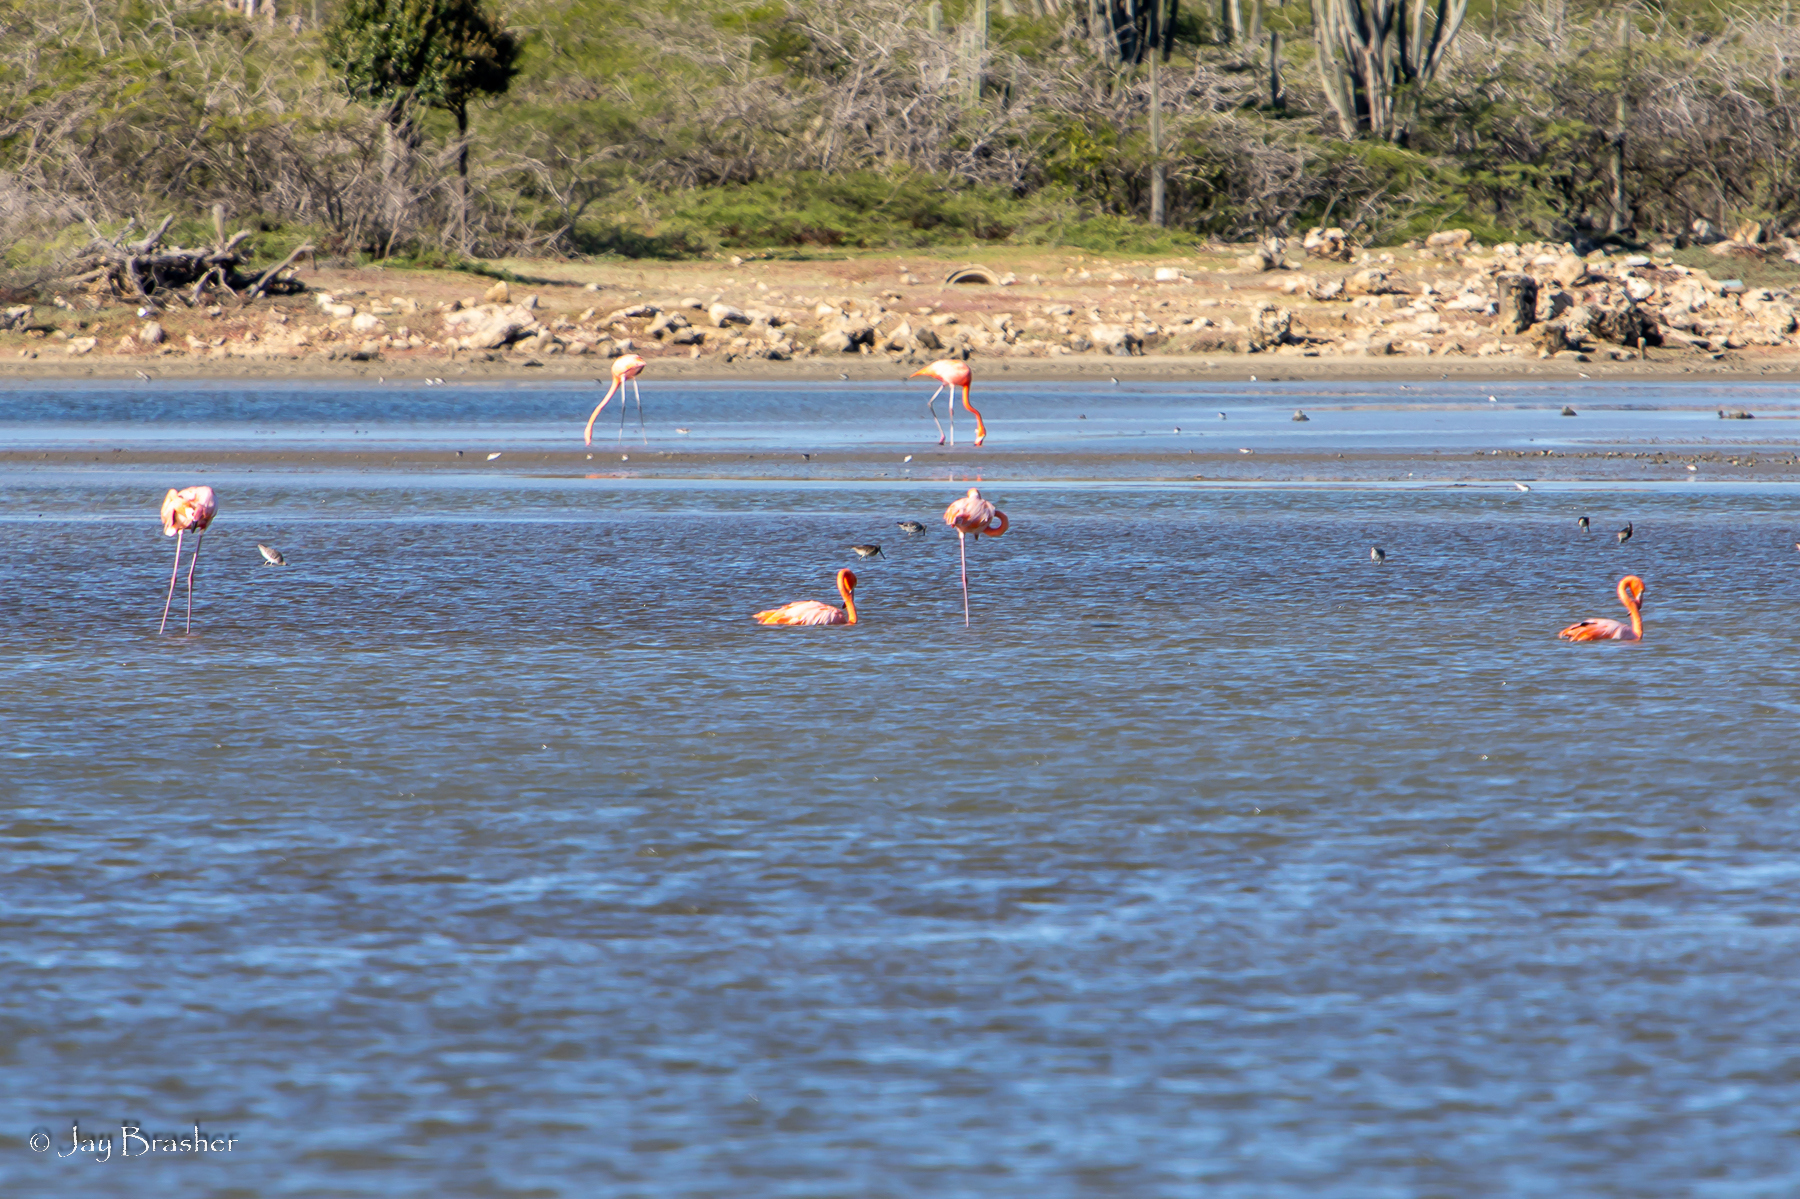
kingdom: Animalia
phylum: Chordata
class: Aves
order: Phoenicopteriformes
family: Phoenicopteridae
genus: Phoenicopterus
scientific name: Phoenicopterus ruber
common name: American flamingo
